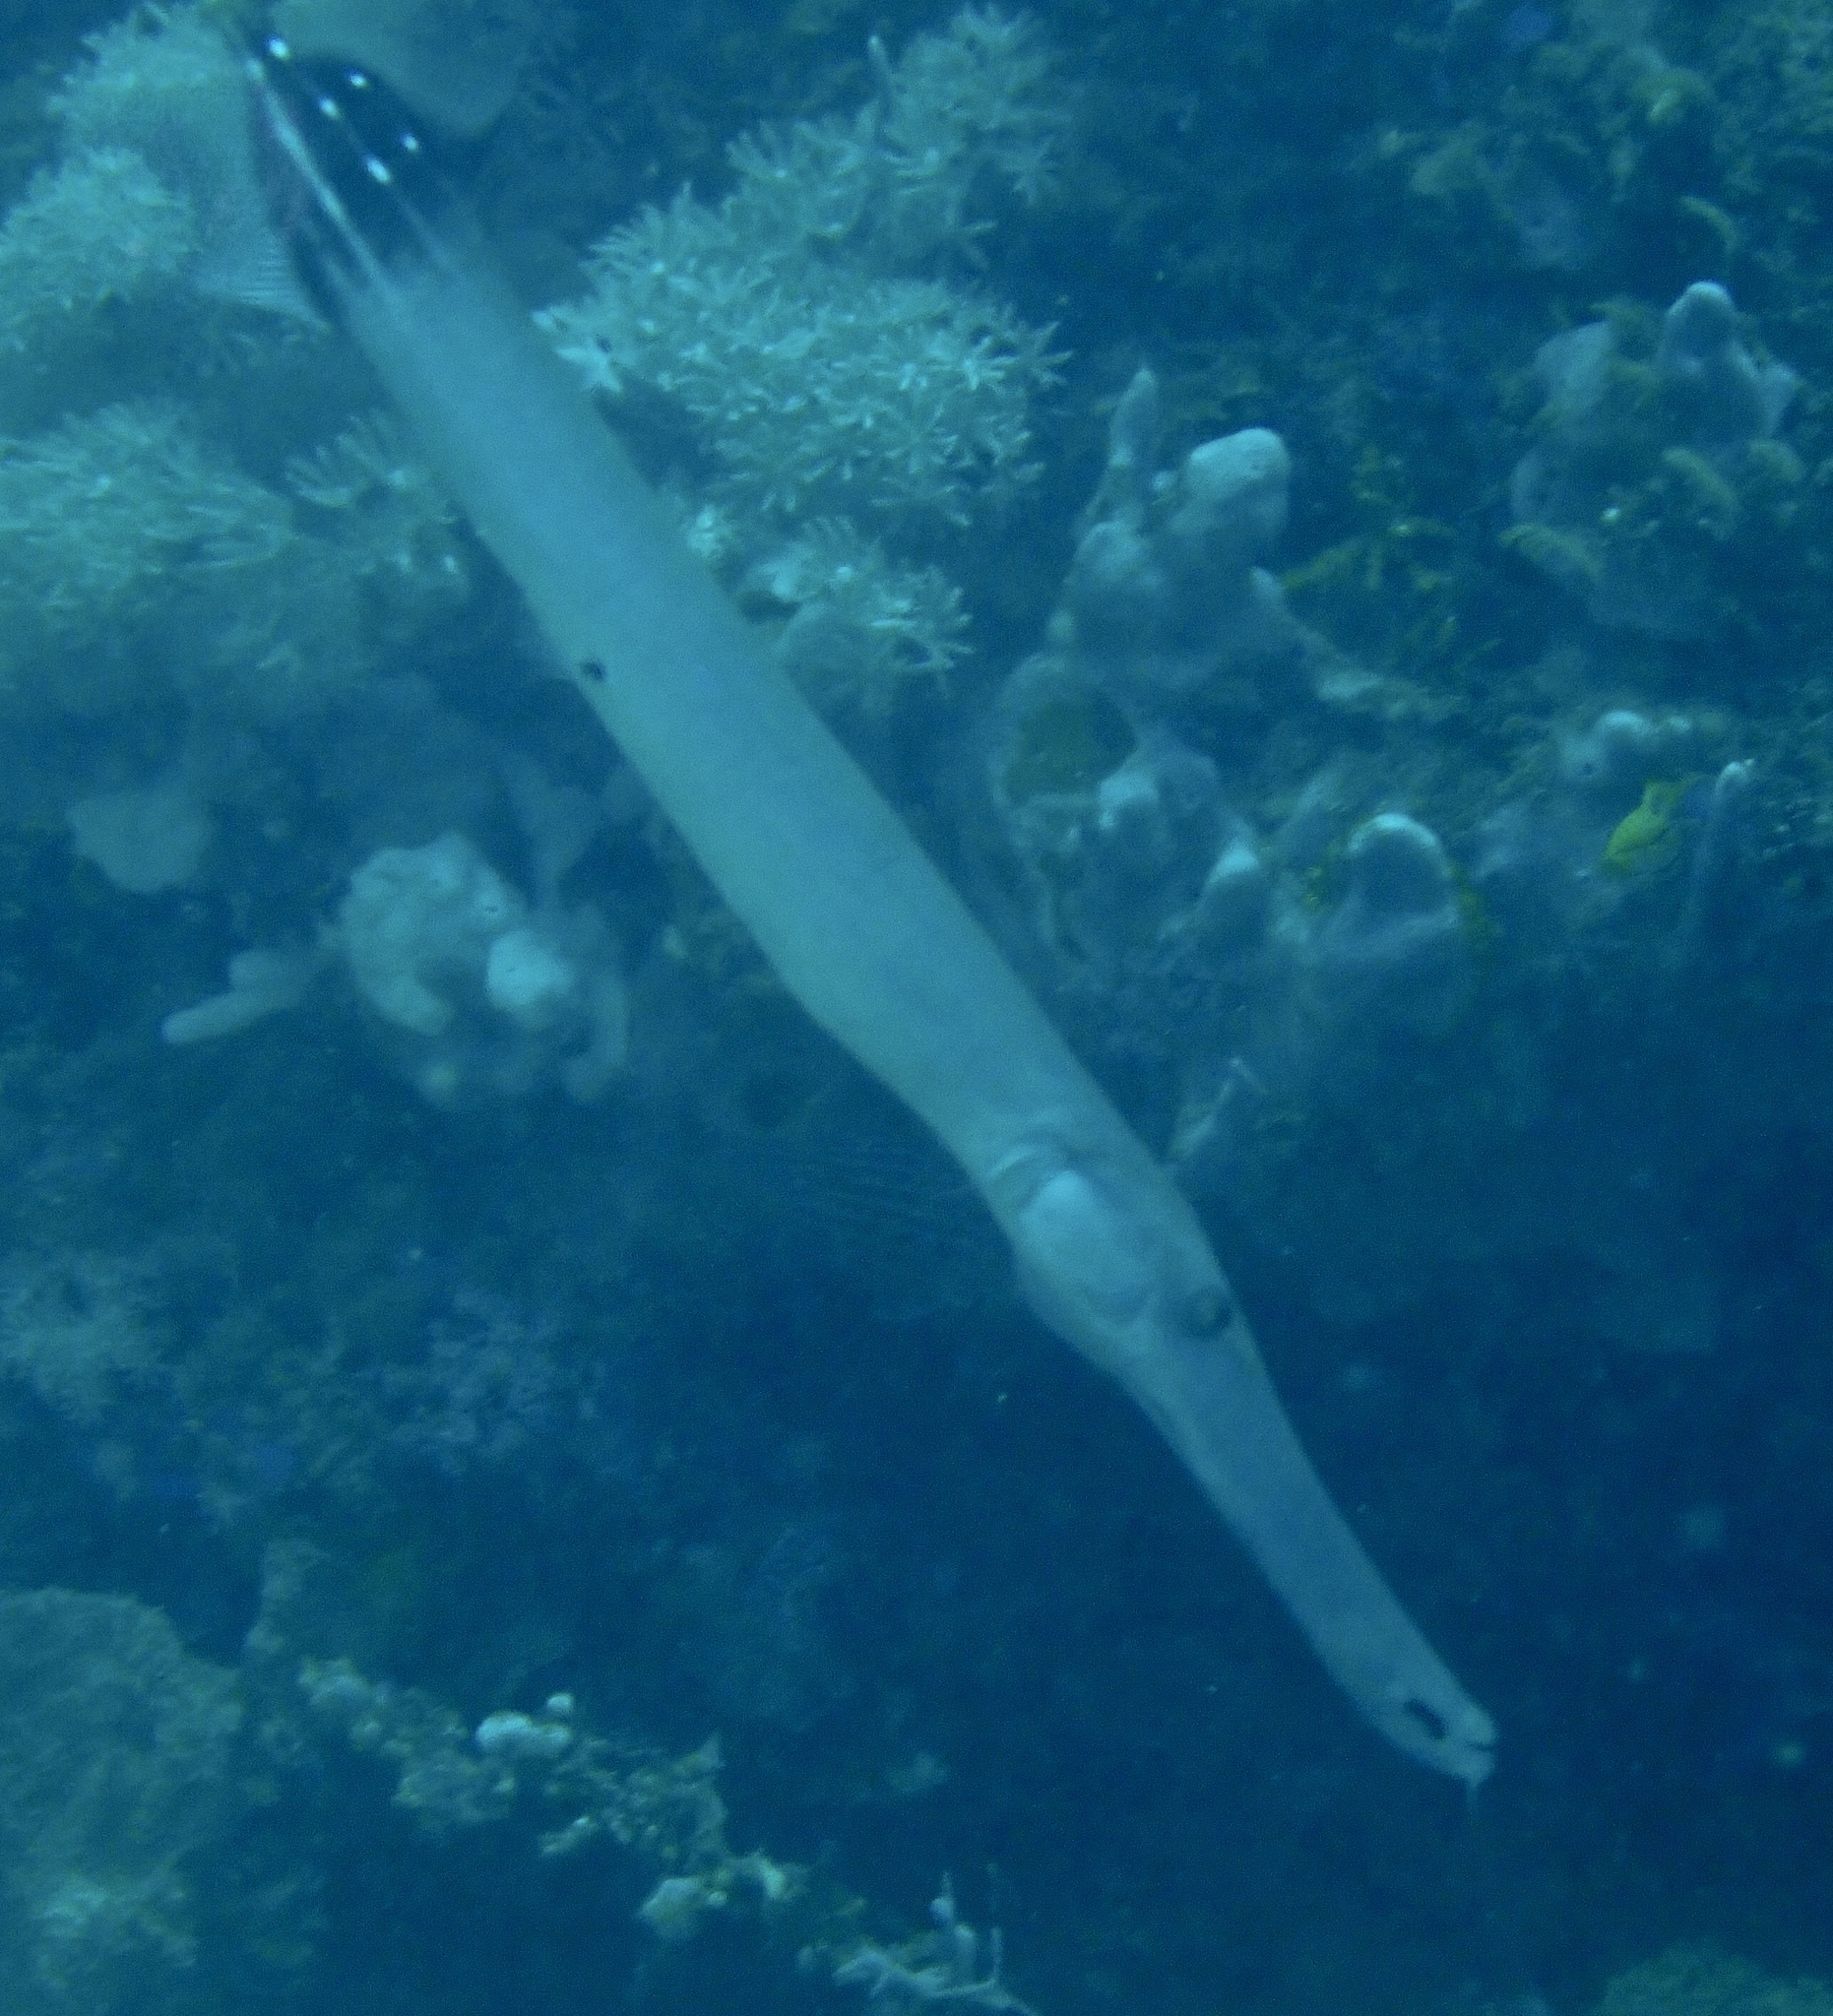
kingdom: Animalia
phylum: Chordata
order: Syngnathiformes
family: Aulostomidae
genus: Aulostomus
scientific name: Aulostomus chinensis
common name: Chinese trumpetfish
